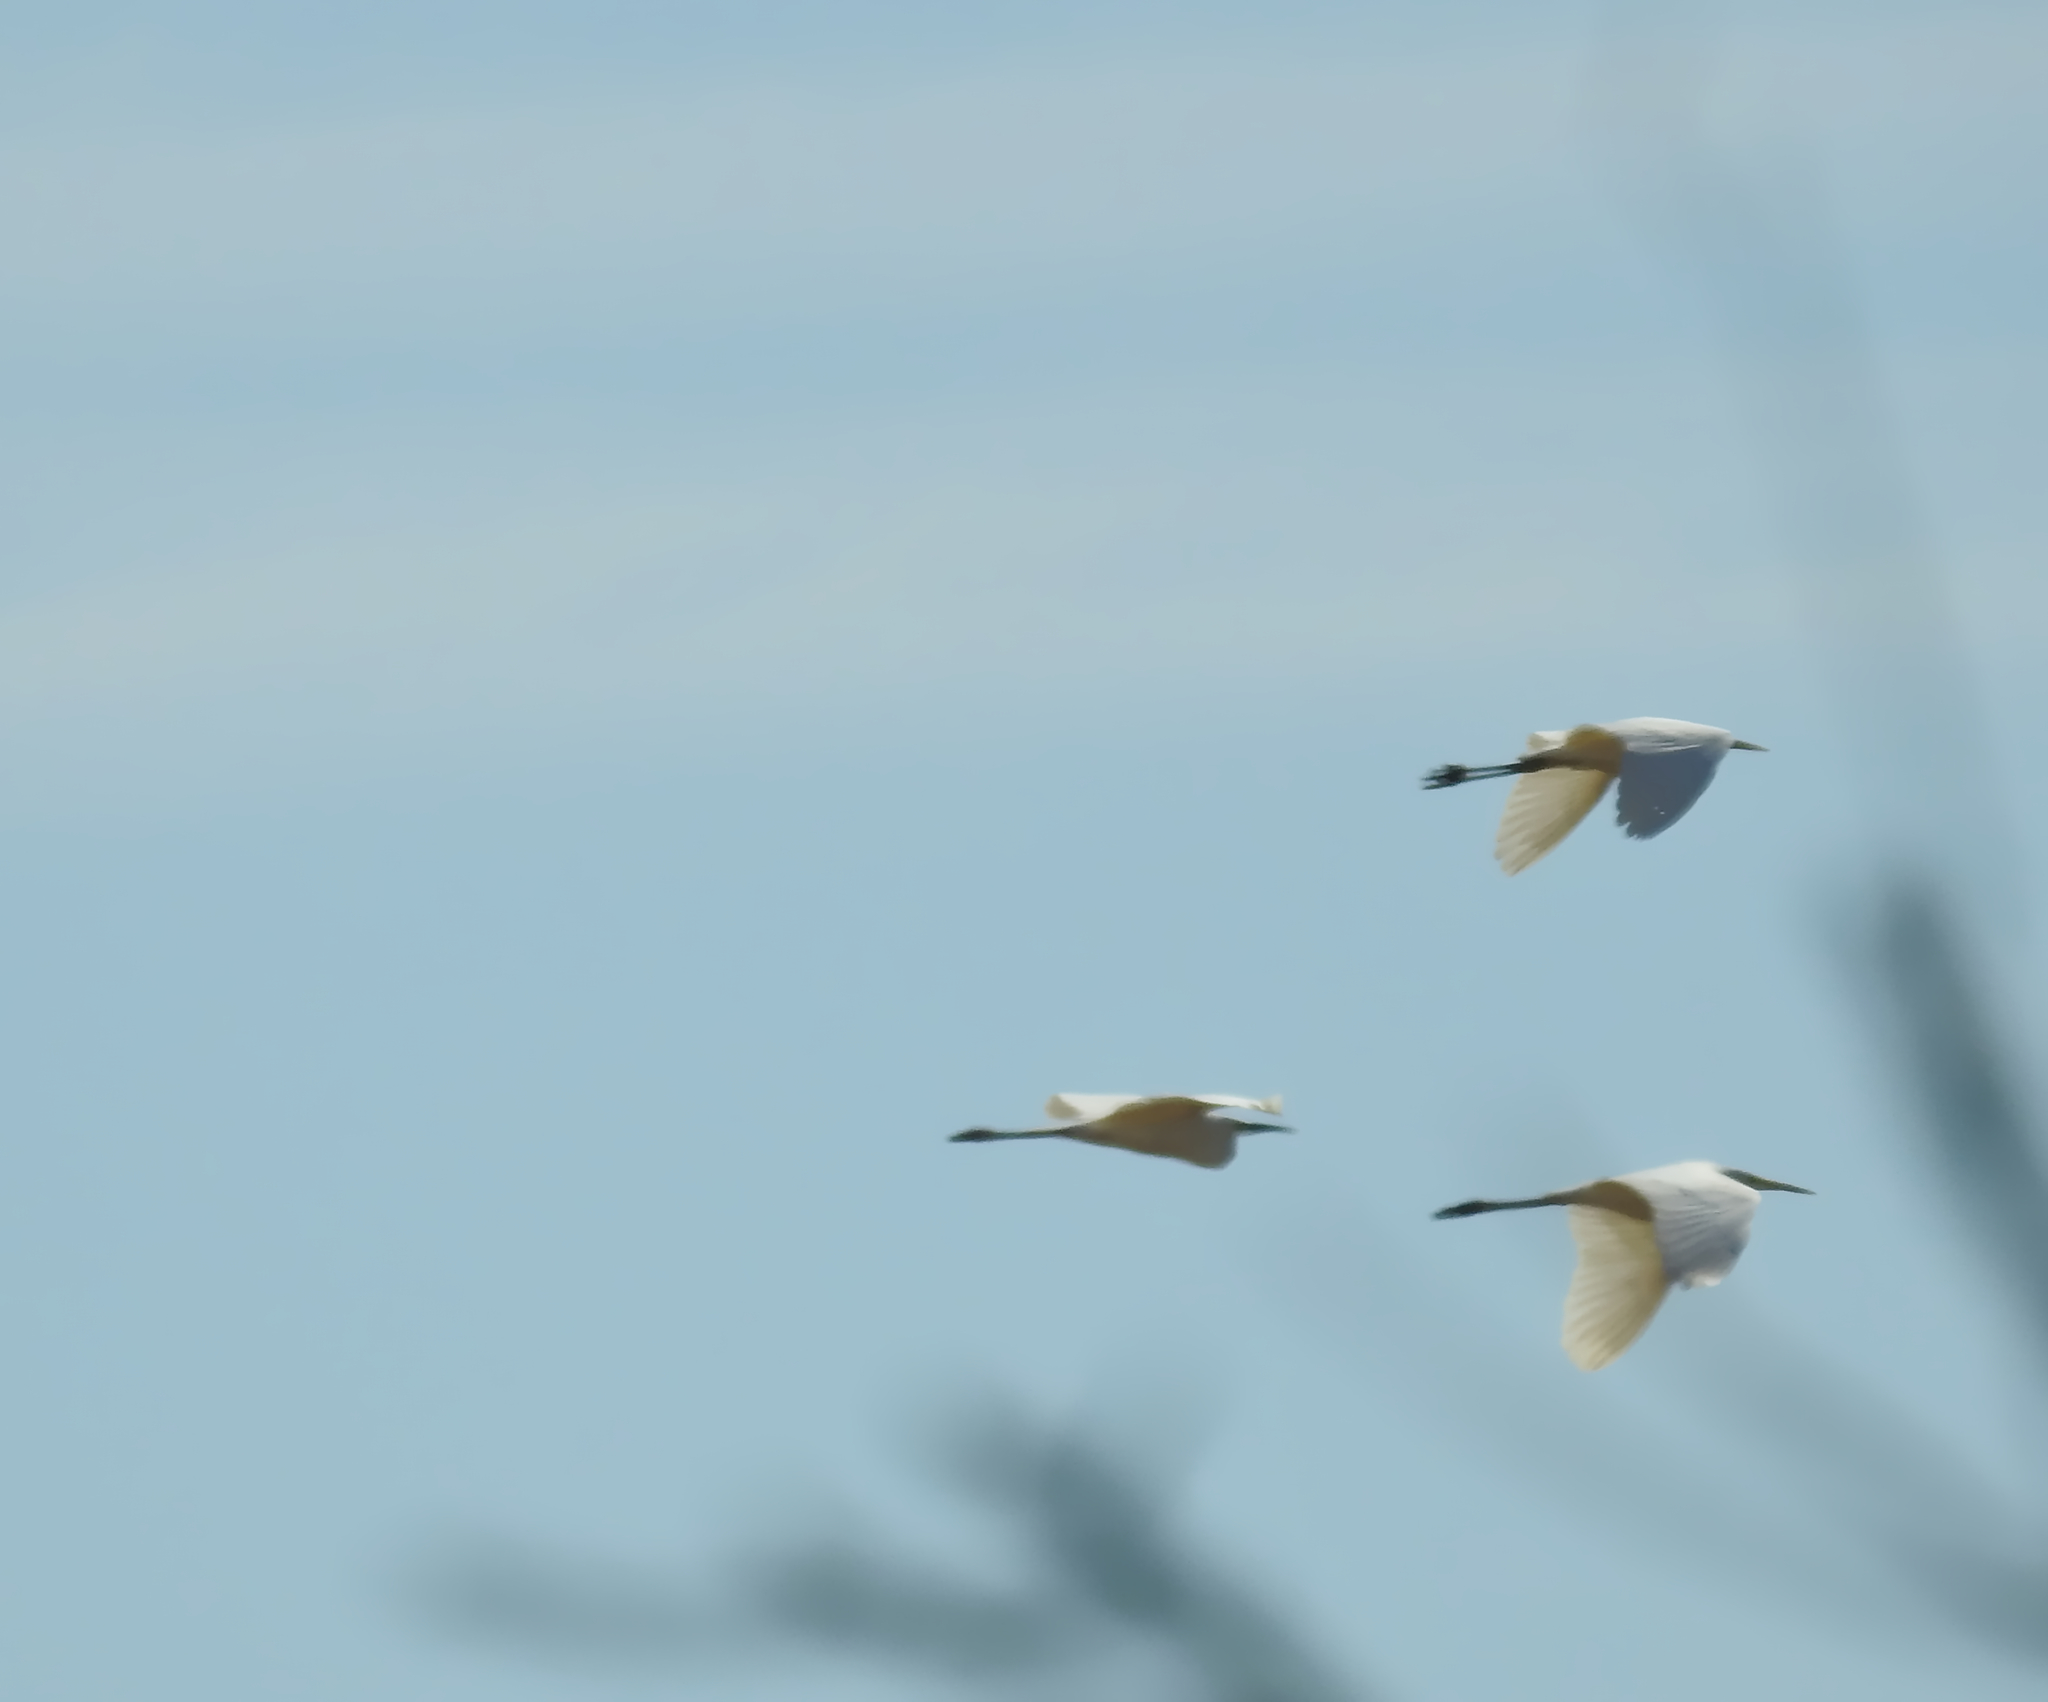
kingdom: Animalia
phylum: Chordata
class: Aves
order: Pelecaniformes
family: Ardeidae
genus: Ardea
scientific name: Ardea alba
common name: Great egret
